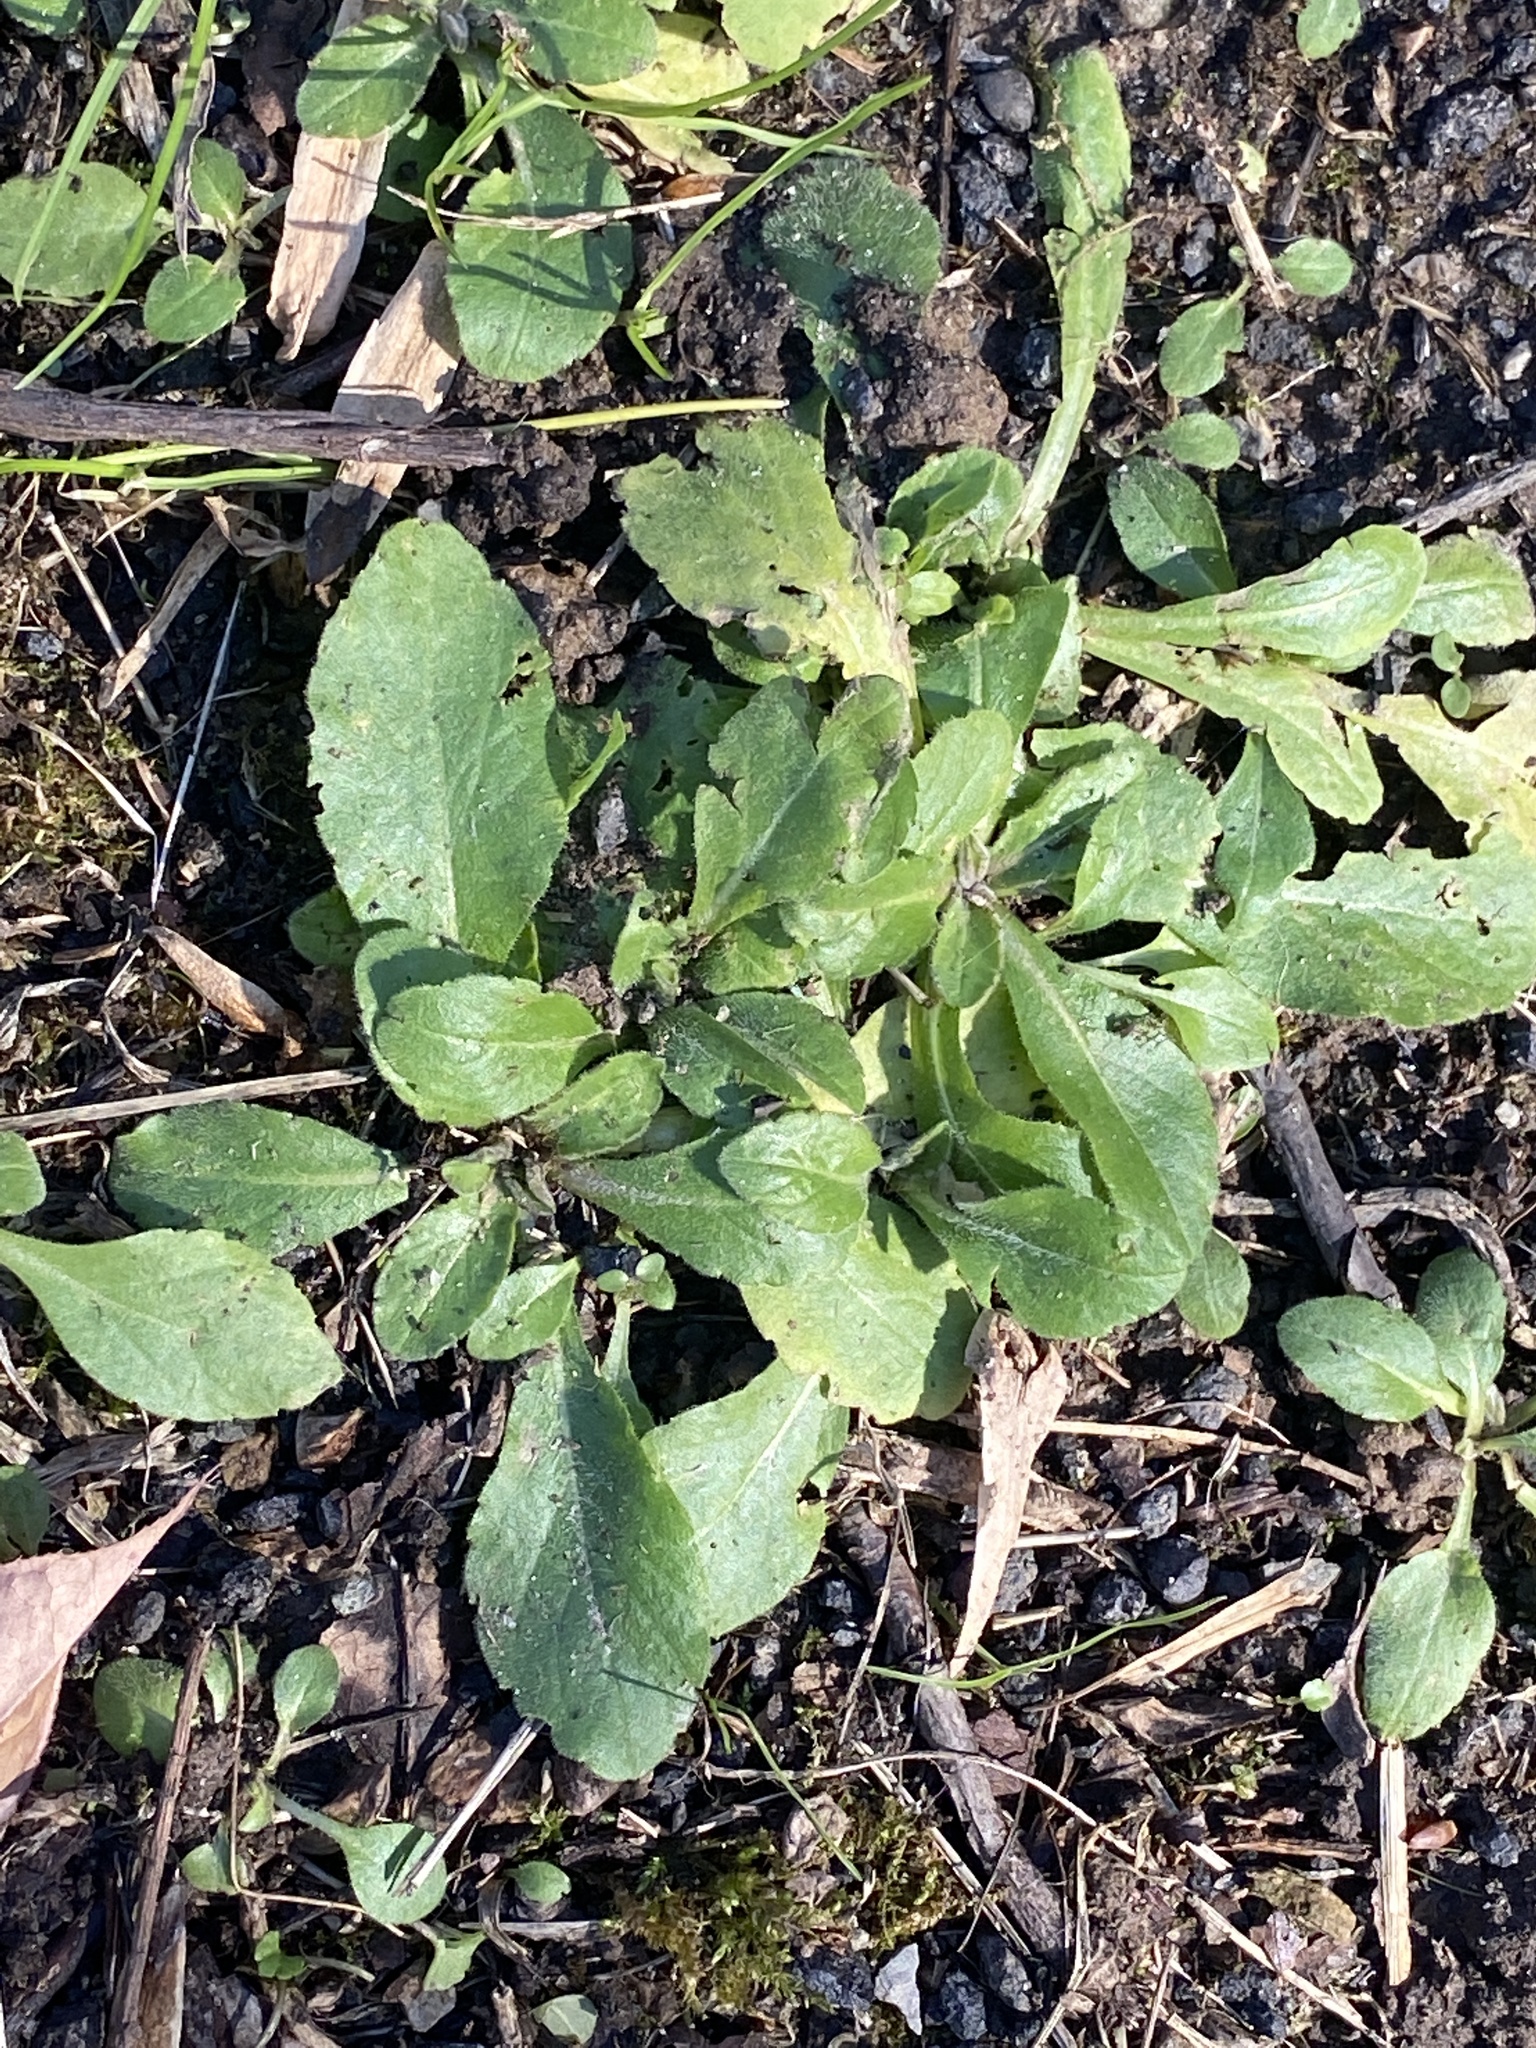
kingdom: Plantae
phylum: Tracheophyta
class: Magnoliopsida
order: Asterales
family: Asteraceae
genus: Erigeron
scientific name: Erigeron pulchellus
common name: Hairy fleabane
